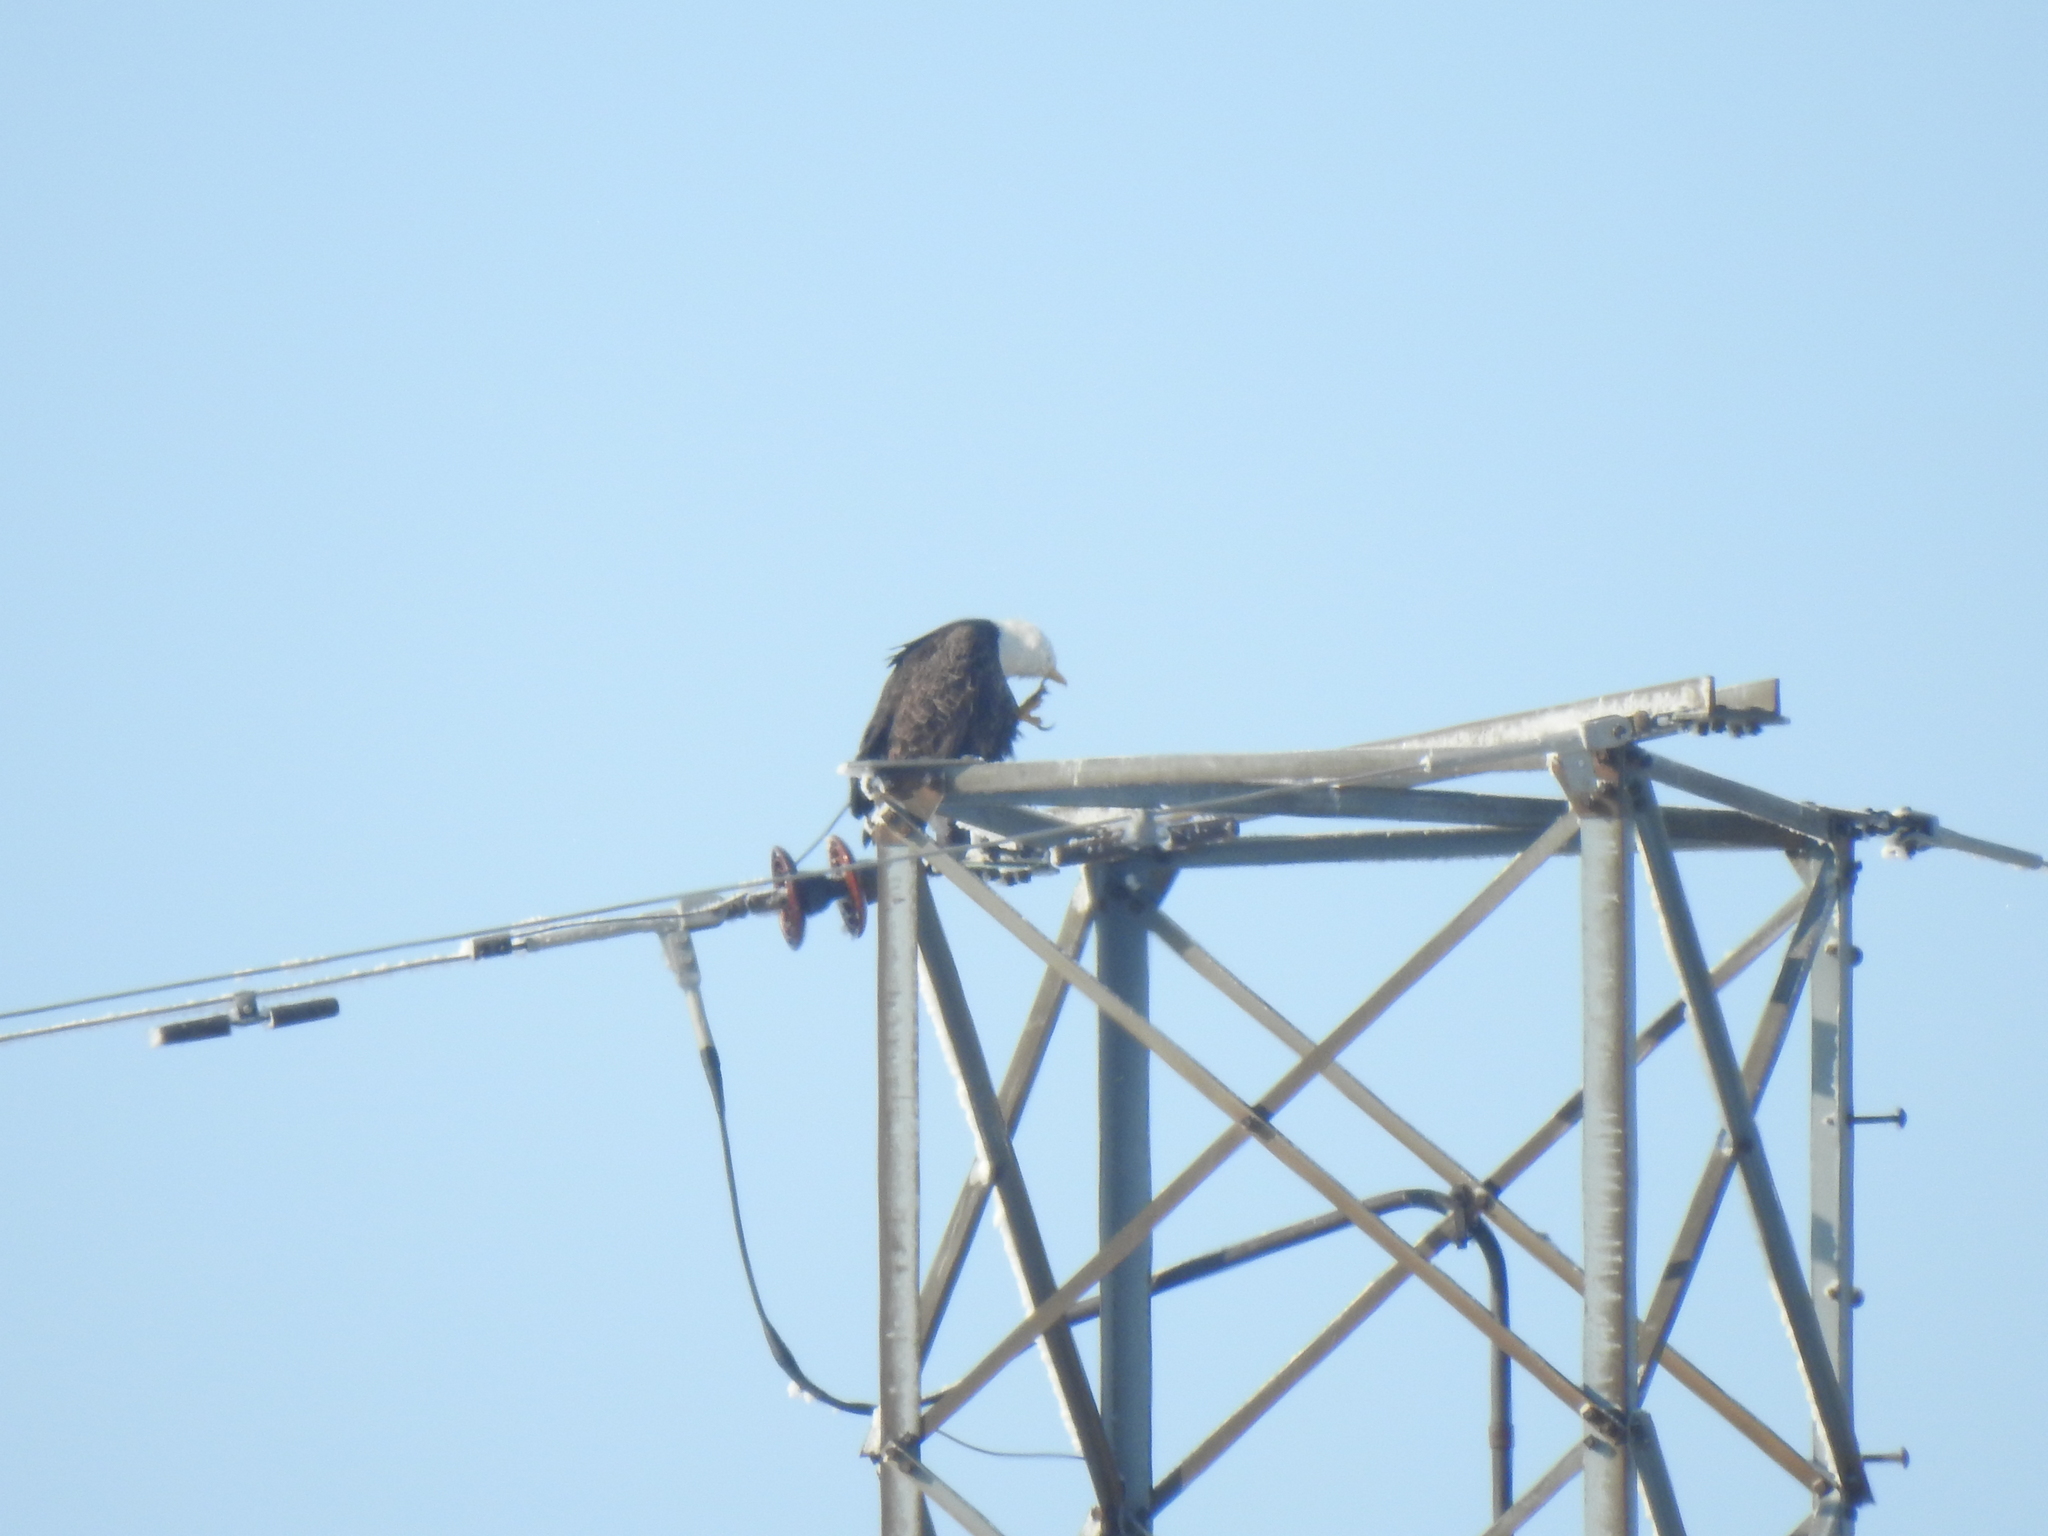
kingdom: Animalia
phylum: Chordata
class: Aves
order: Accipitriformes
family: Accipitridae
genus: Haliaeetus
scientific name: Haliaeetus leucocephalus
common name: Bald eagle
